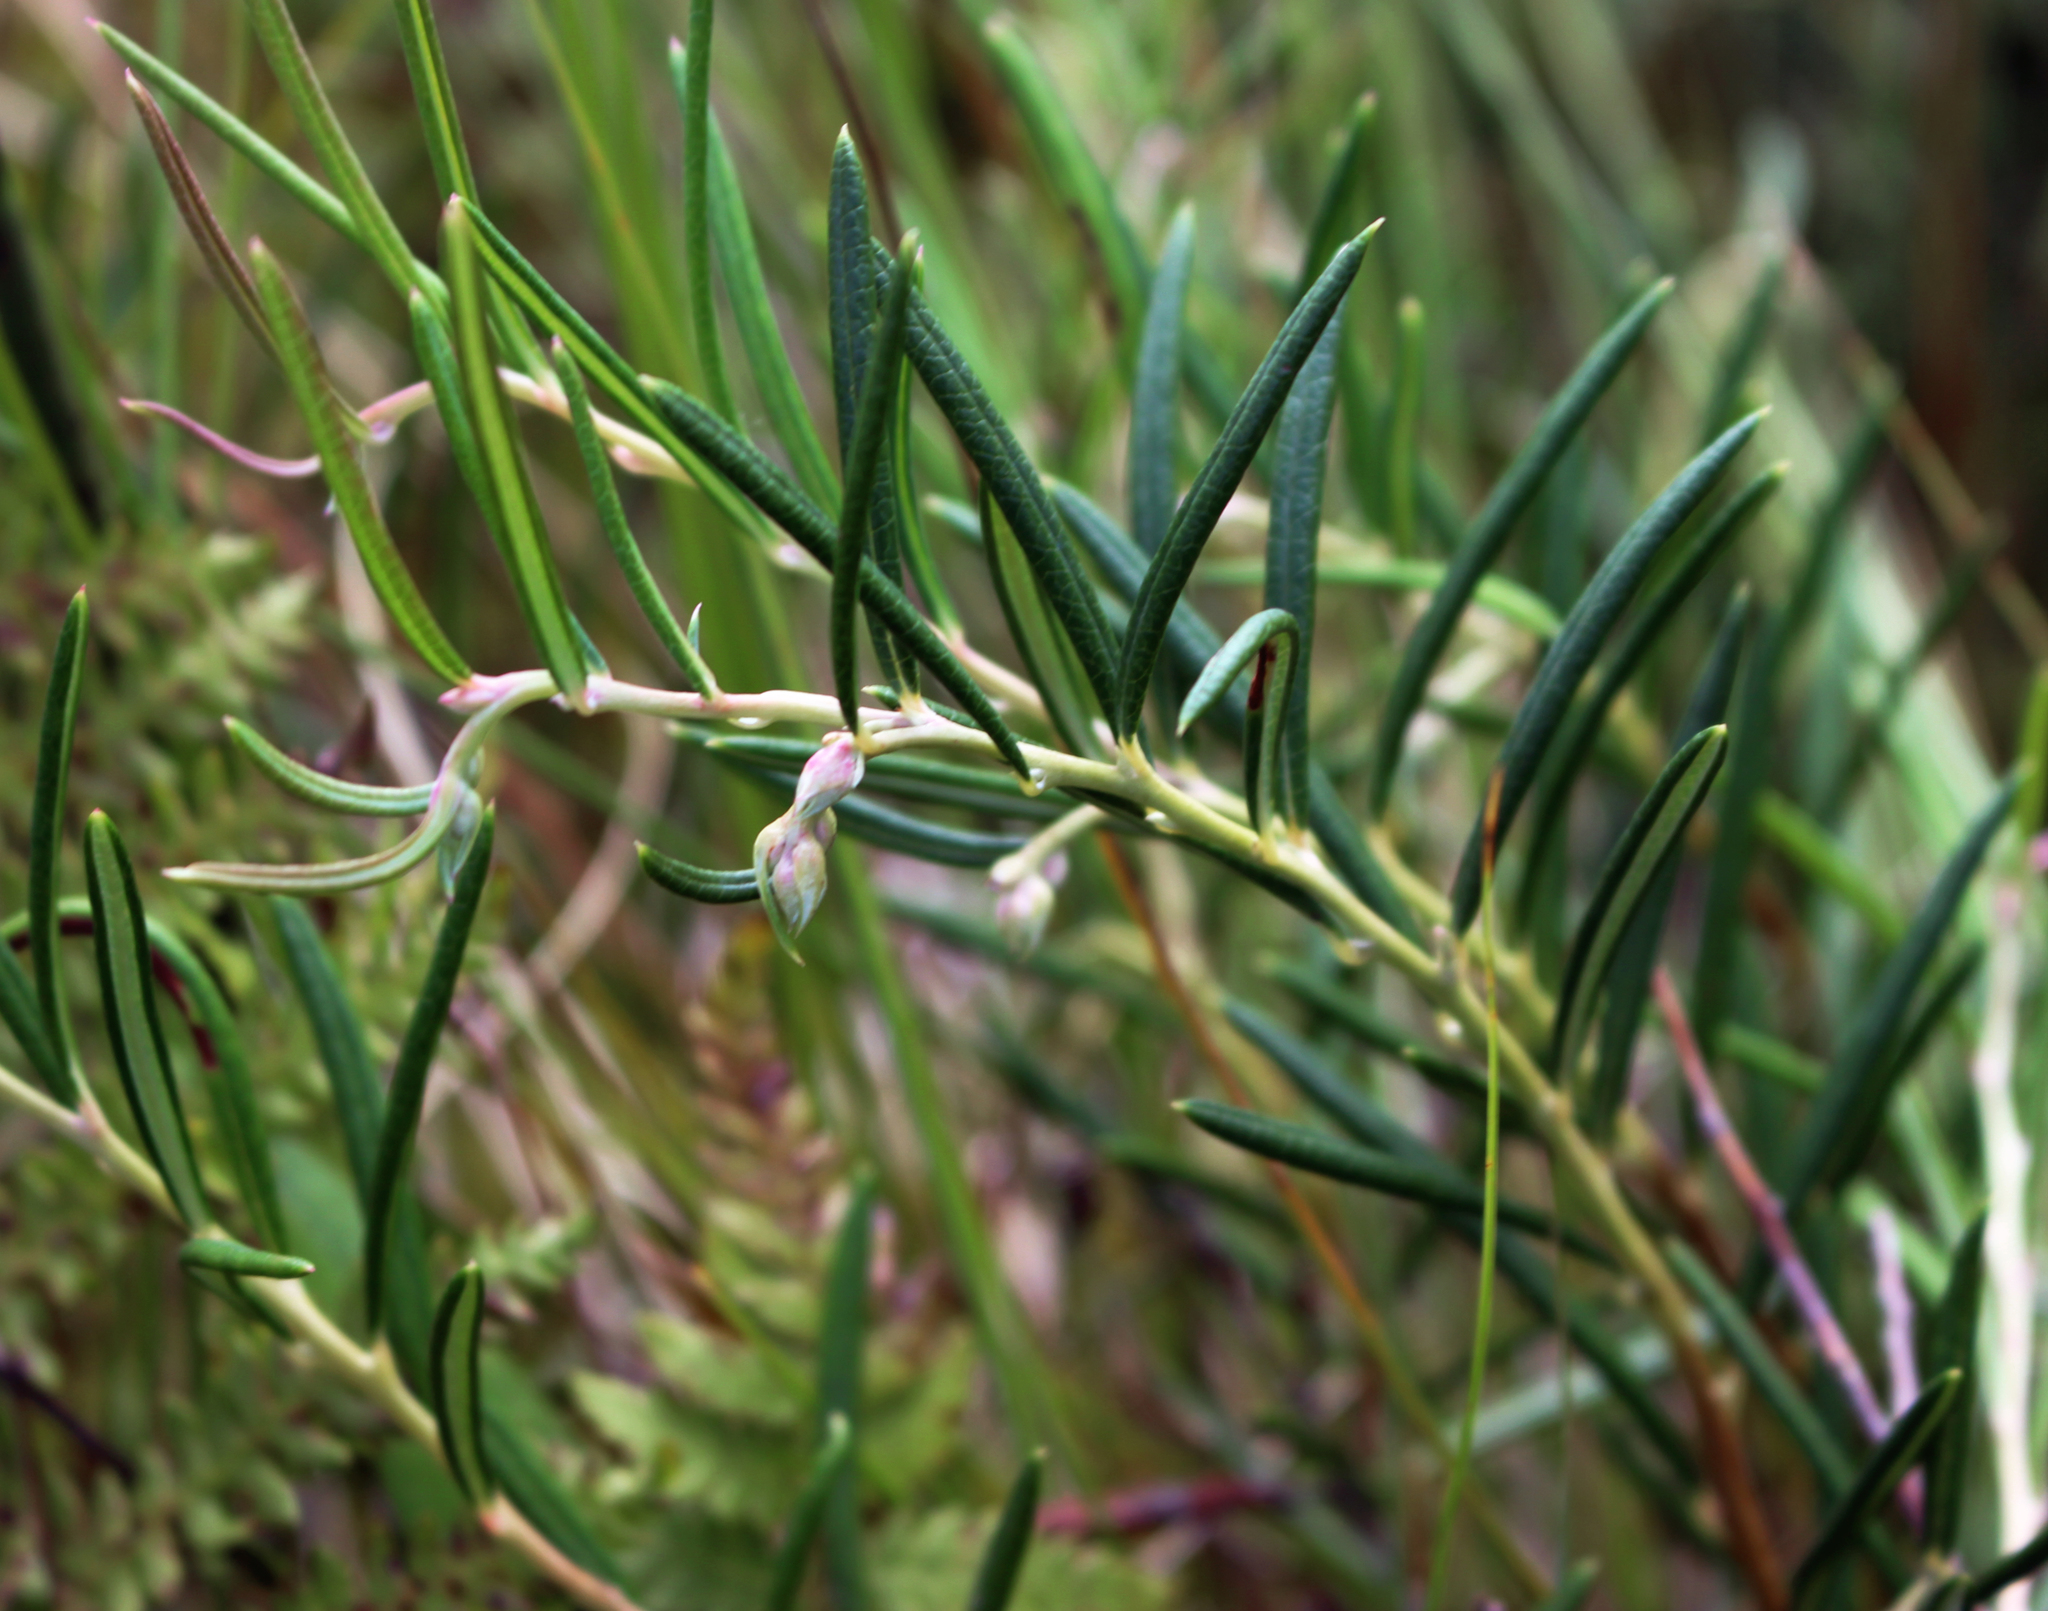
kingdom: Plantae
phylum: Tracheophyta
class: Magnoliopsida
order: Ericales
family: Ericaceae
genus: Andromeda
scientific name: Andromeda polifolia
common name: Bog-rosemary
